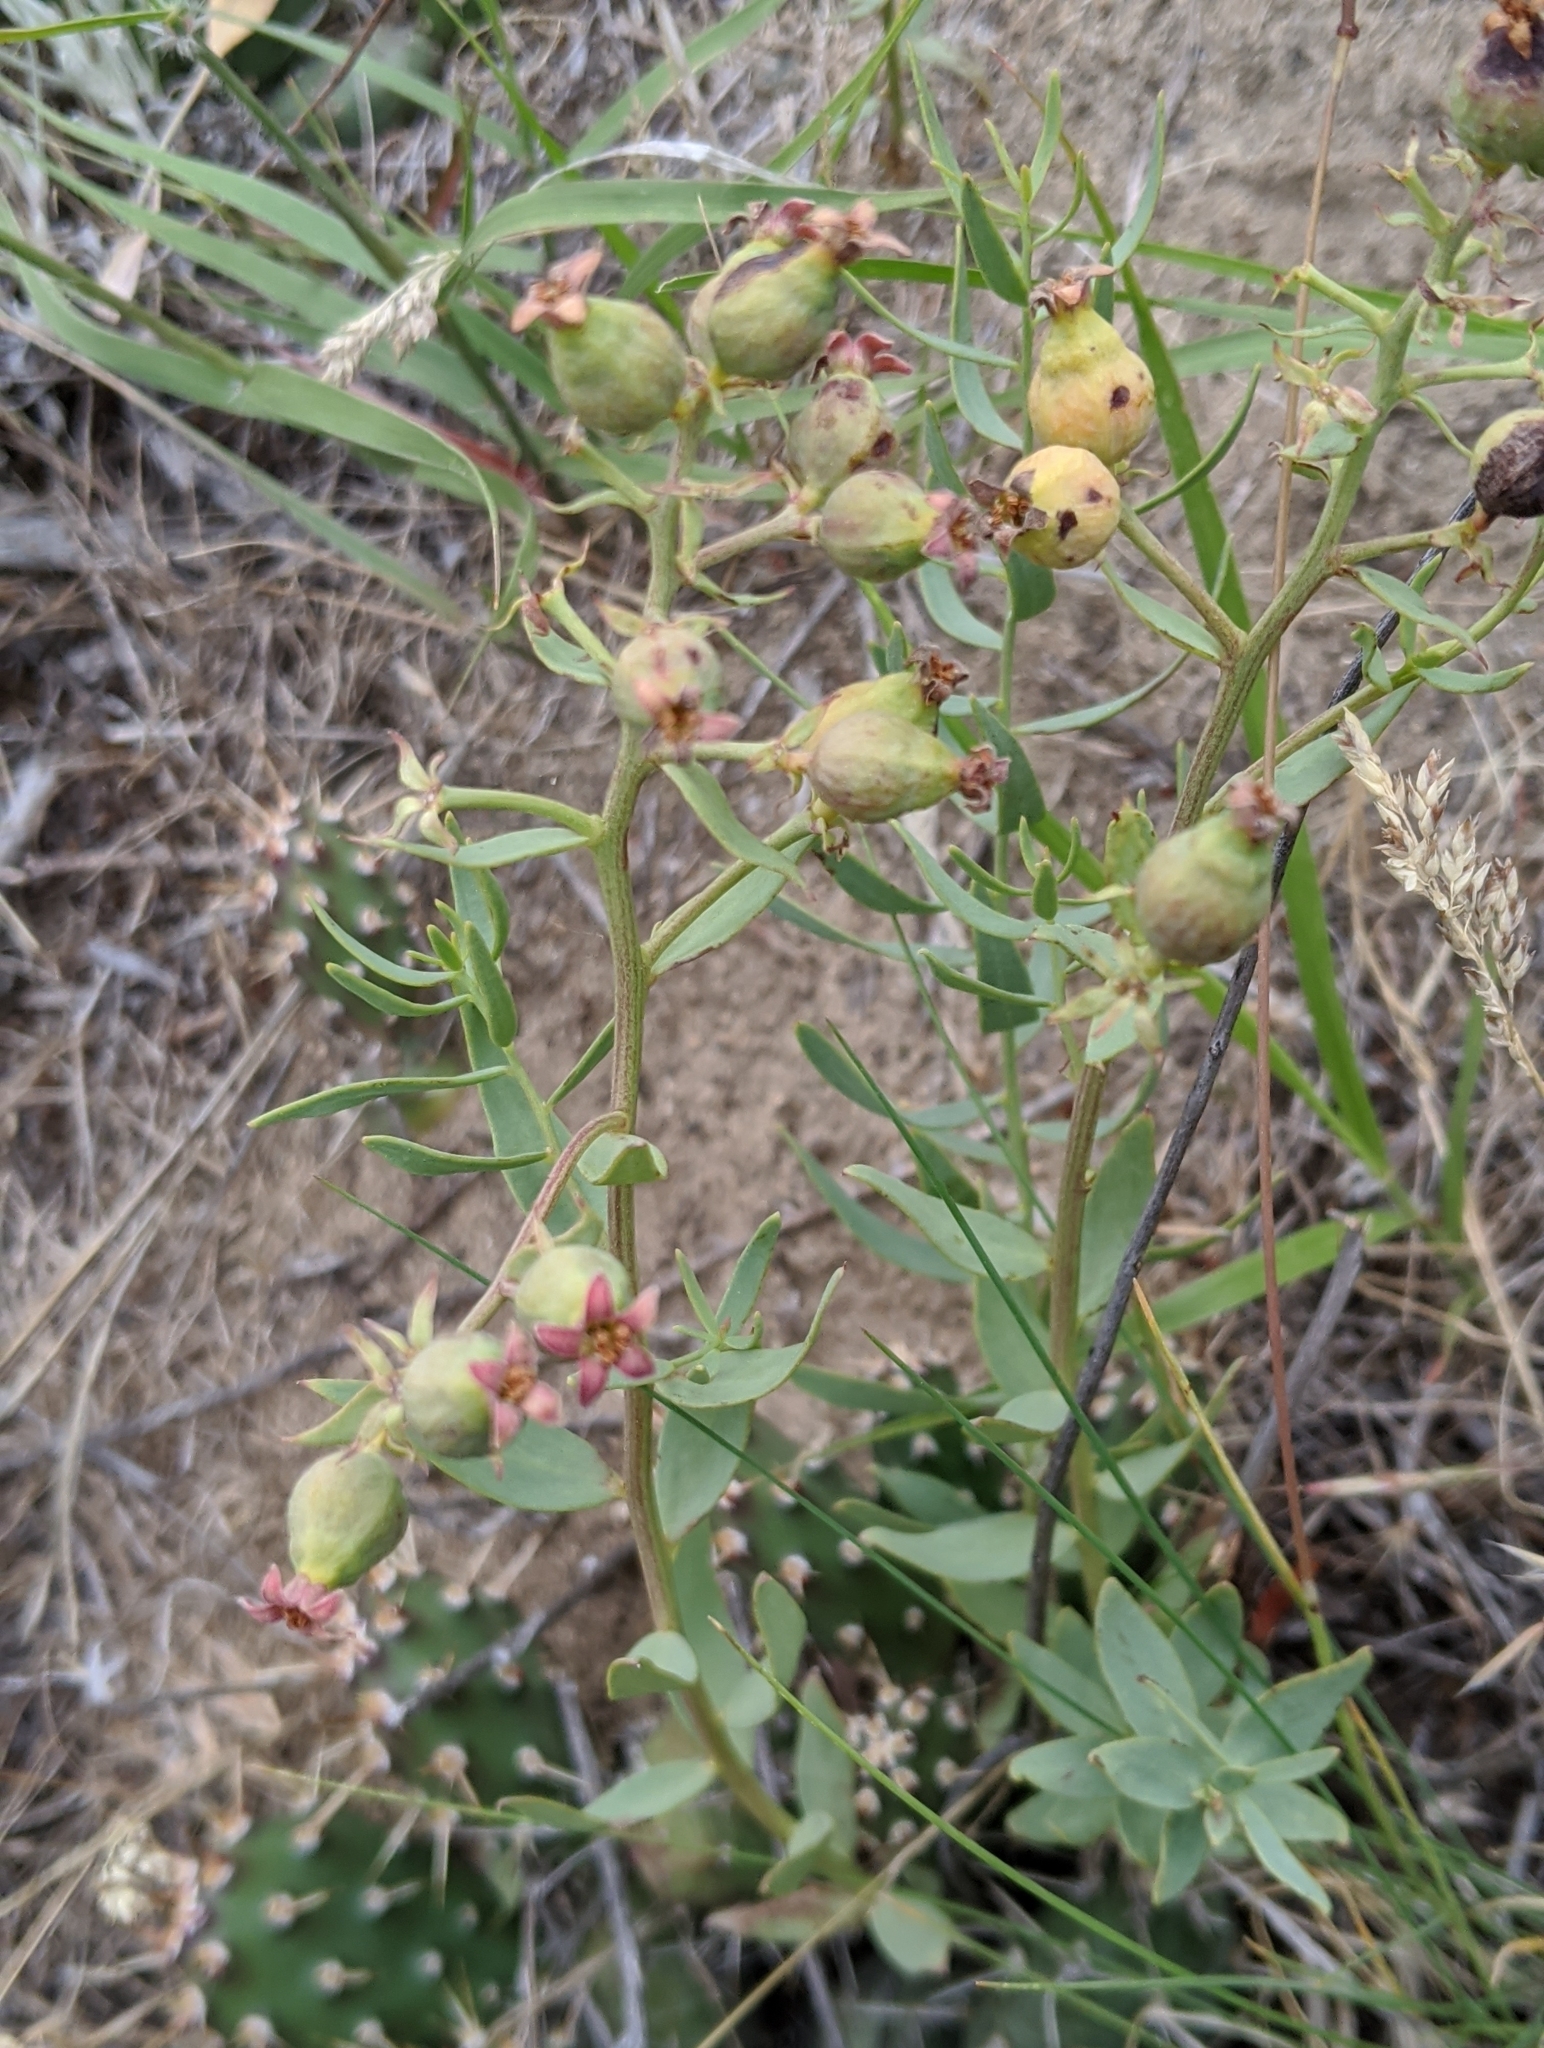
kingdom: Plantae
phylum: Tracheophyta
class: Magnoliopsida
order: Santalales
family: Comandraceae
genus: Comandra
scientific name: Comandra umbellata
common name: Bastard toadflax
